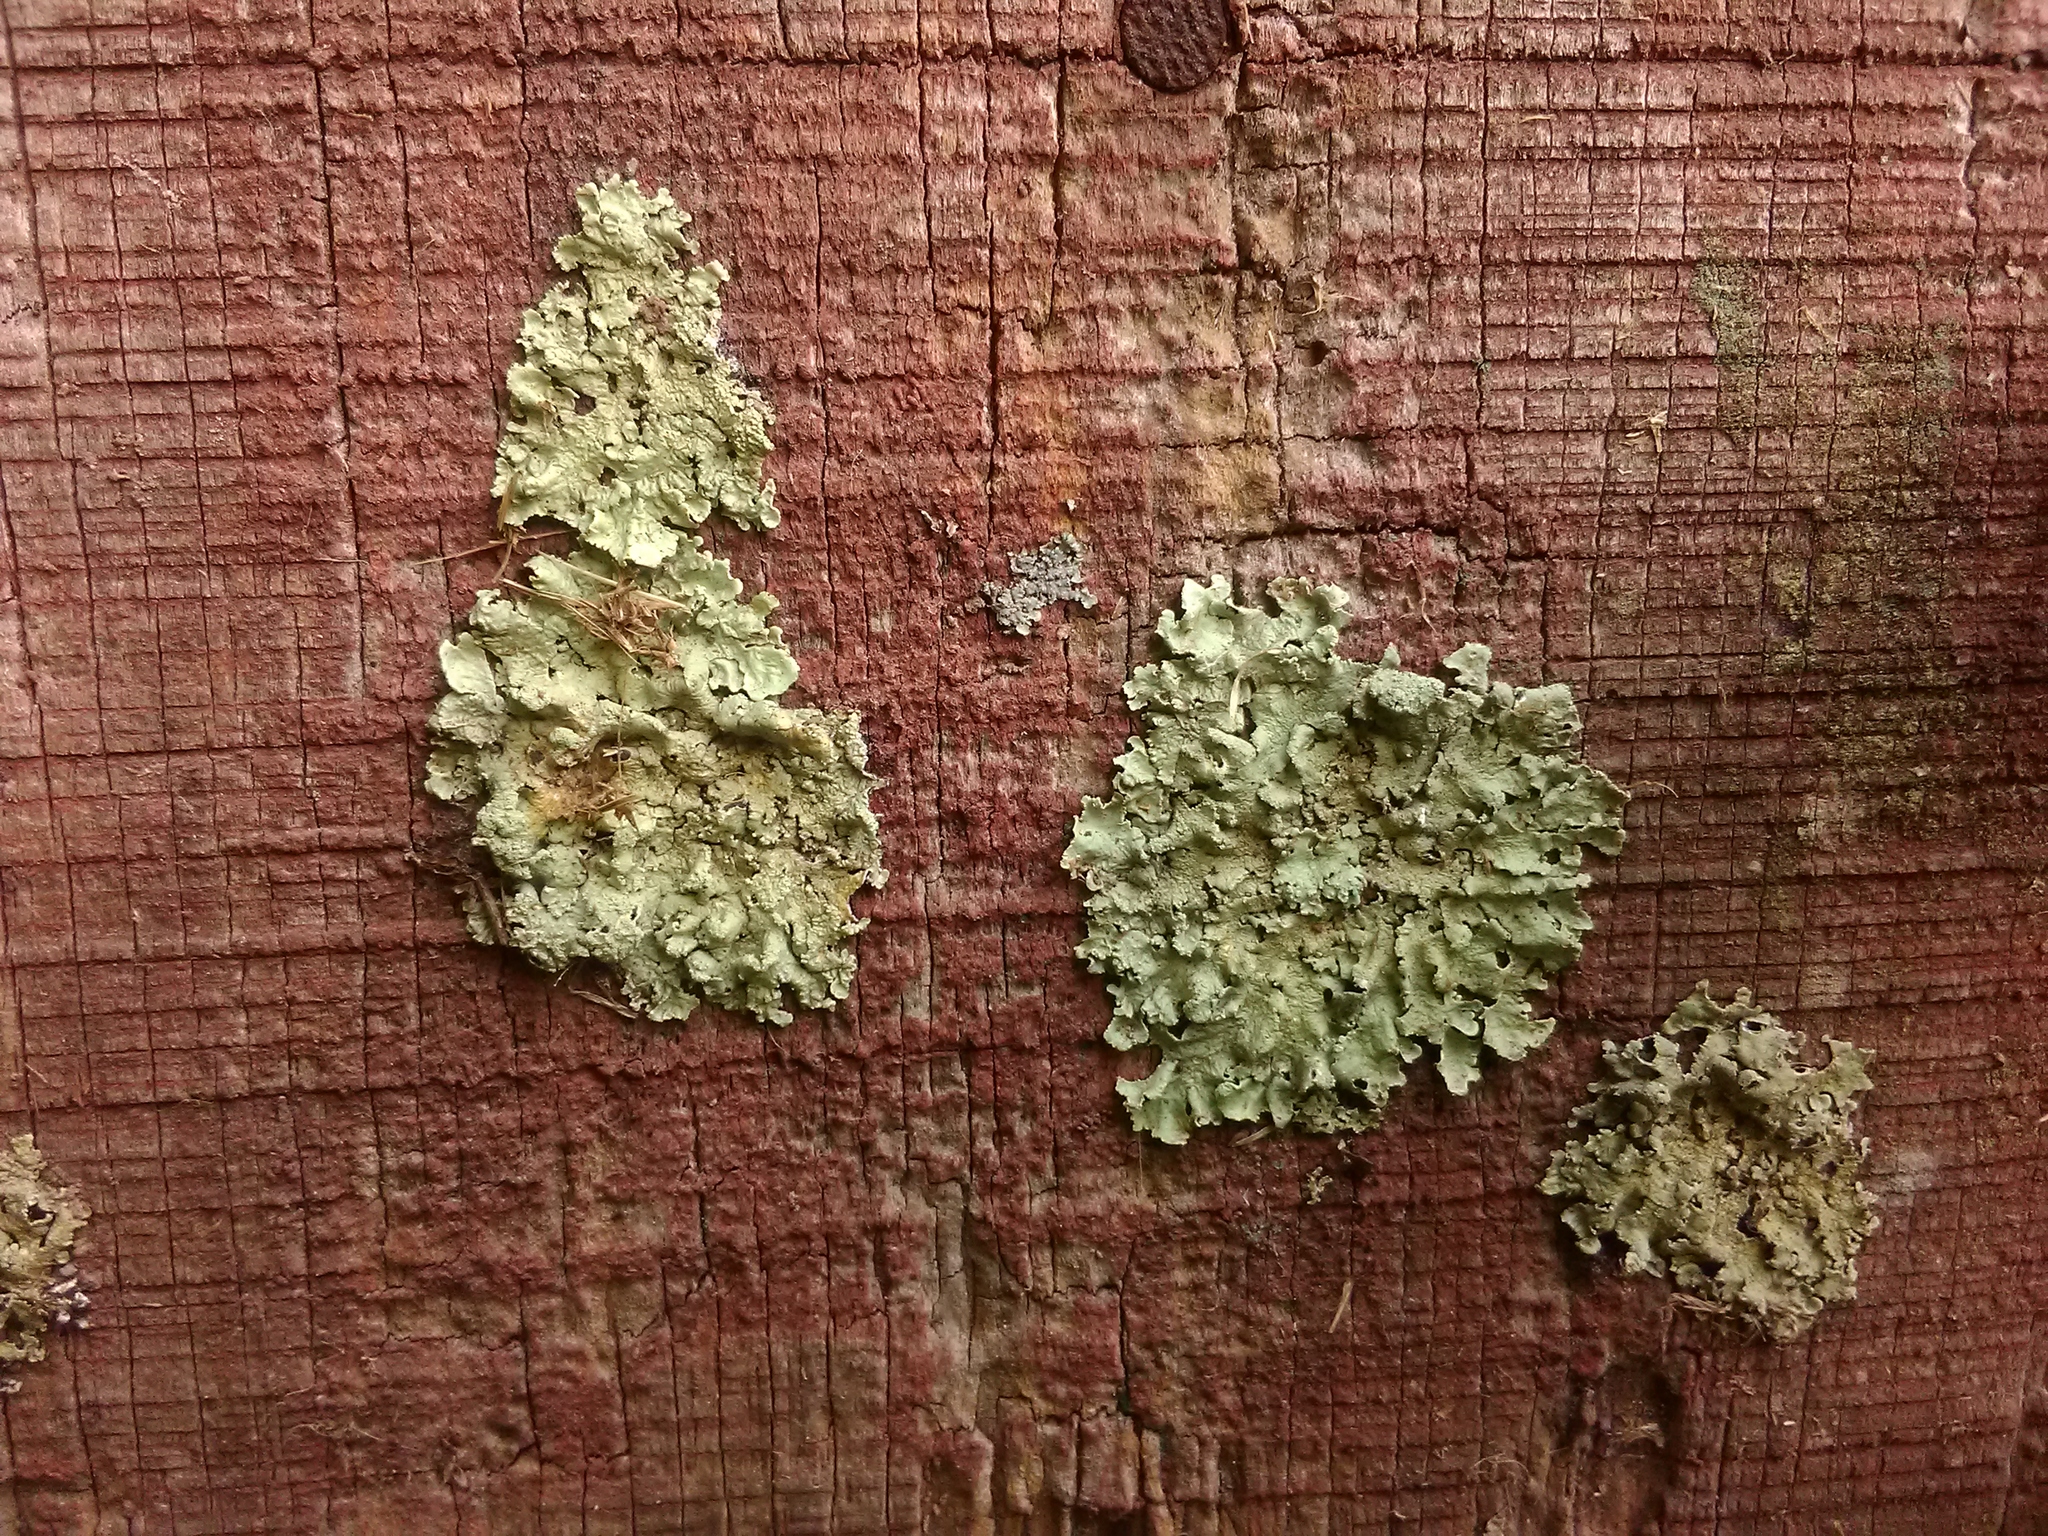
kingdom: Fungi
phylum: Ascomycota
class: Lecanoromycetes
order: Lecanorales
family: Parmeliaceae
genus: Flavoparmelia
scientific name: Flavoparmelia caperata
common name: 40-mile per hour lichen
